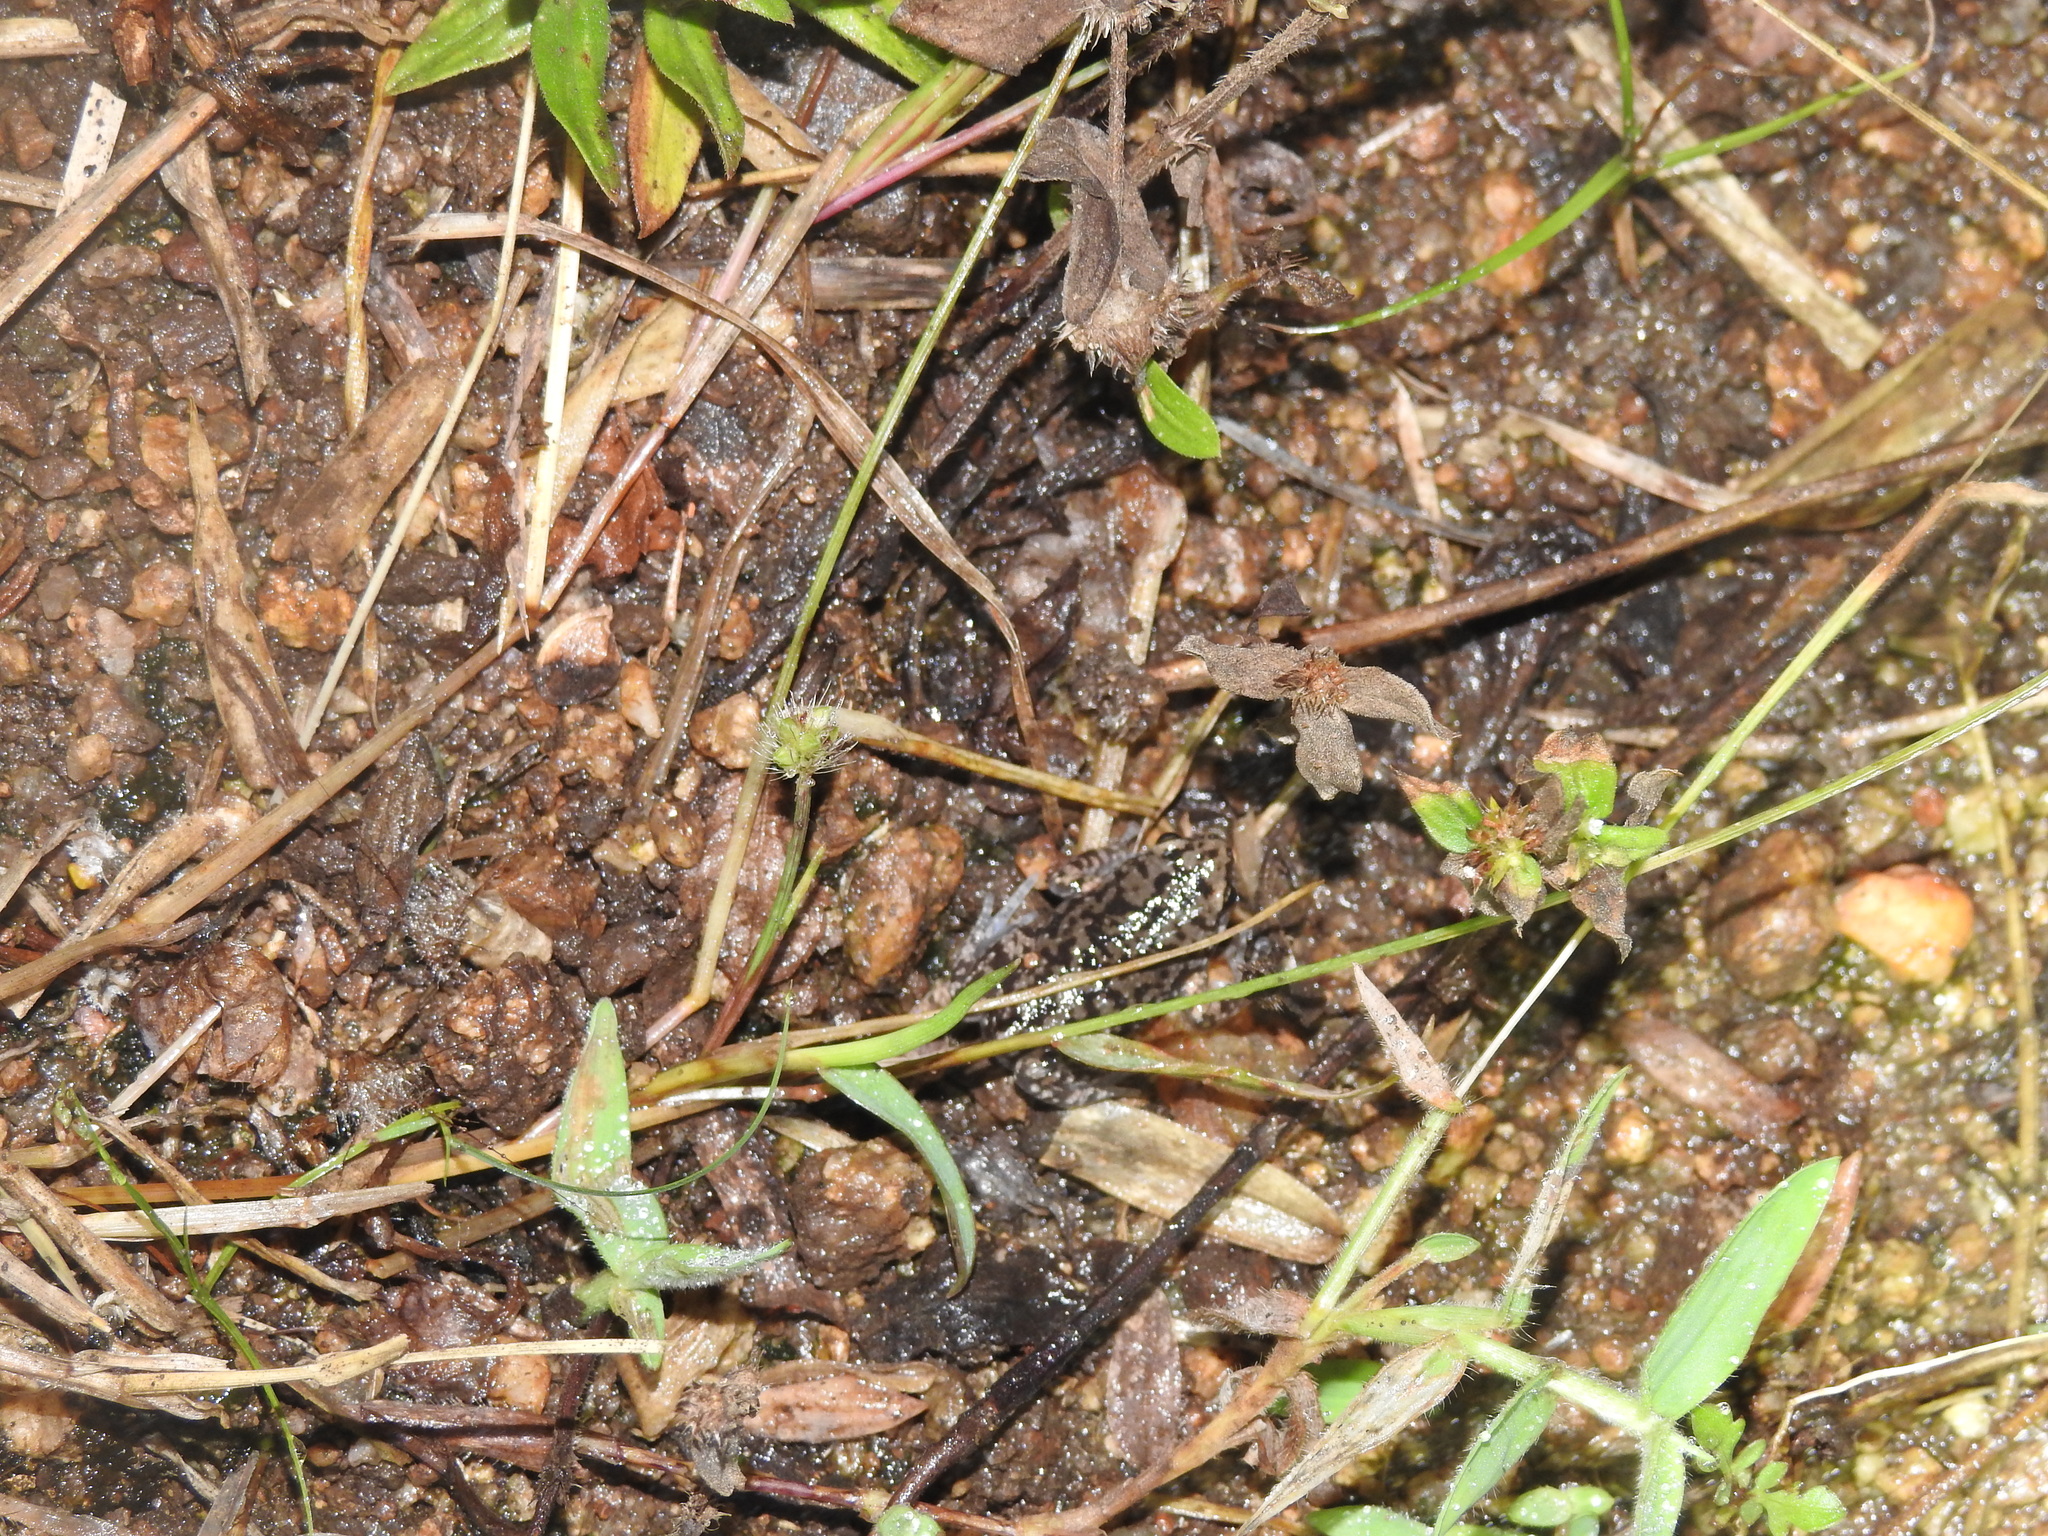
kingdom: Animalia
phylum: Chordata
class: Amphibia
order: Anura
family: Microhylidae
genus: Uperodon
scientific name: Uperodon variegatus
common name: Eluru dot frog
